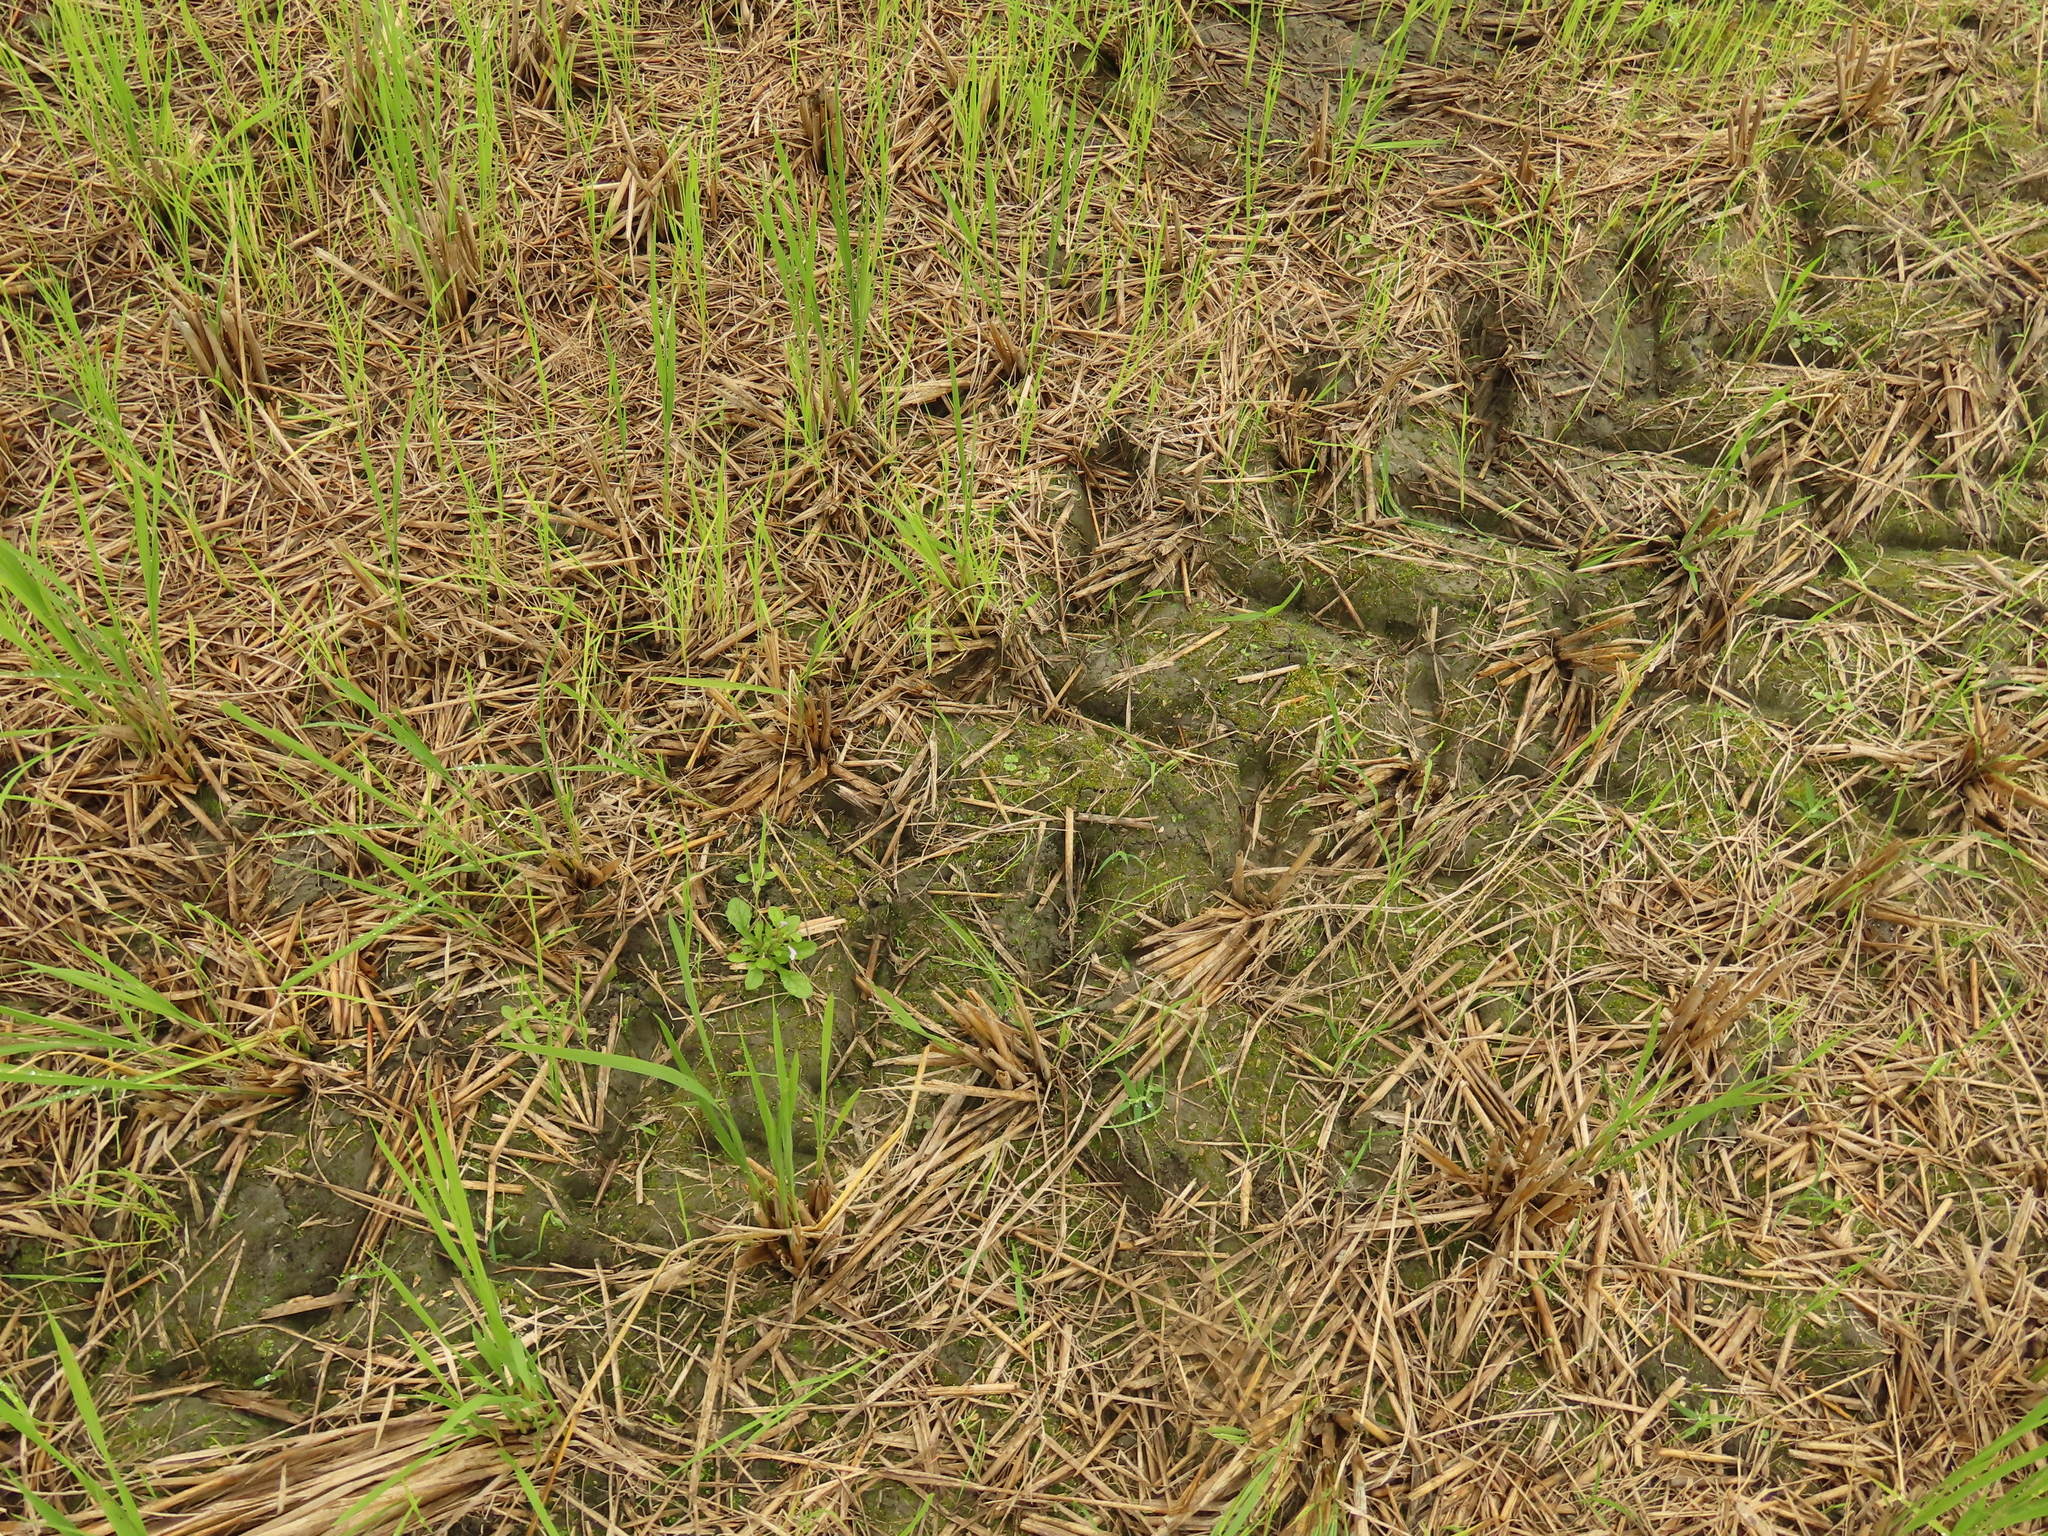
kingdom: Plantae
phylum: Marchantiophyta
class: Marchantiopsida
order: Marchantiales
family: Ricciaceae
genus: Ricciocarpos
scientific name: Ricciocarpos natans
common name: Purple-fringed liverwort
